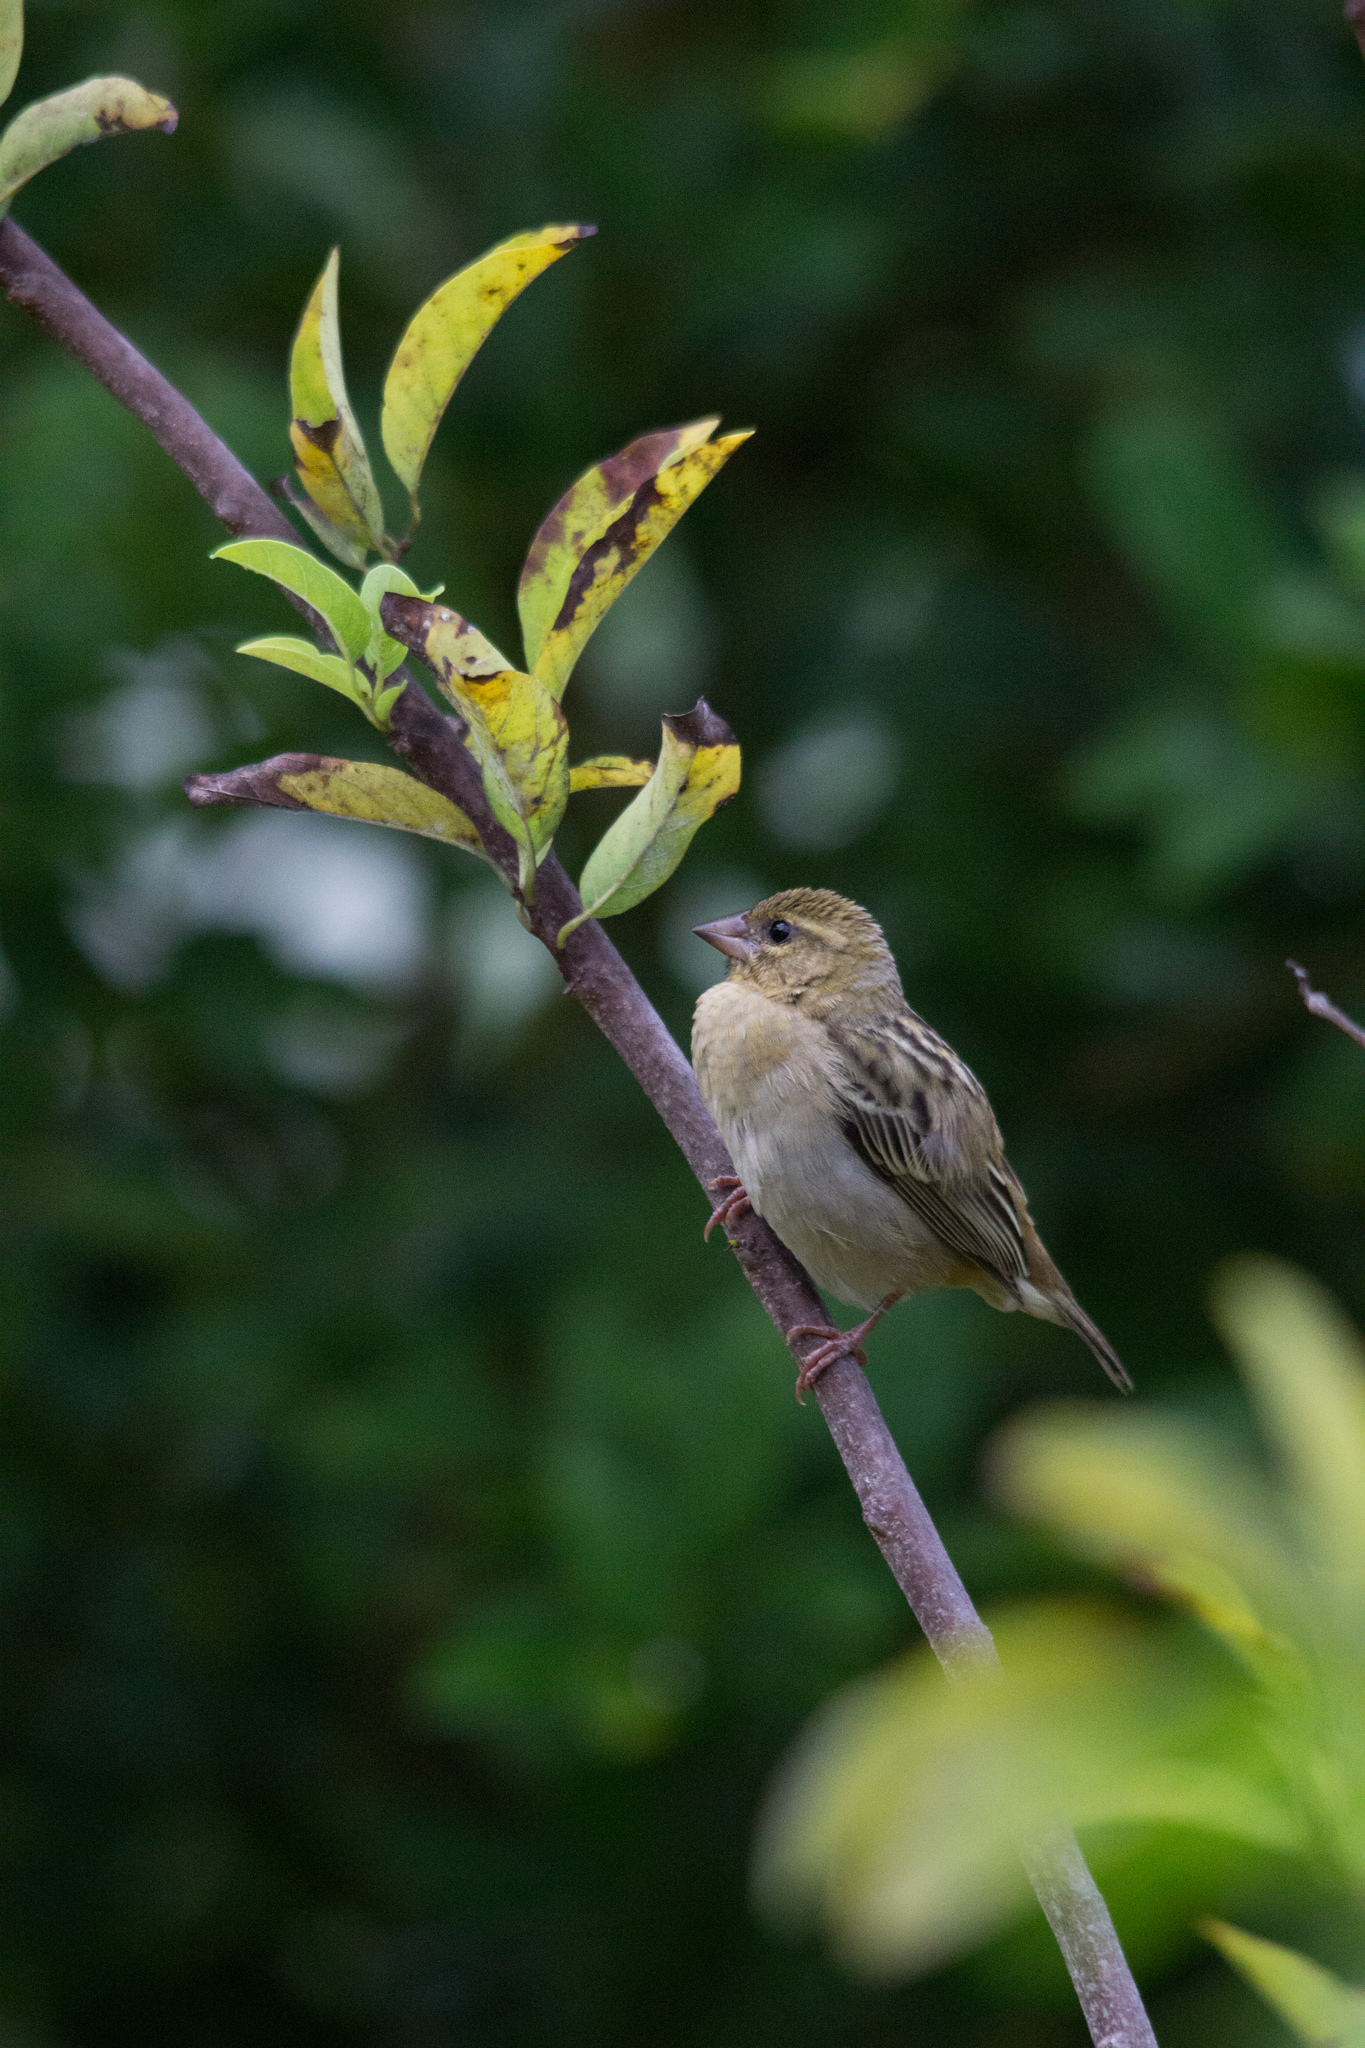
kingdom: Animalia
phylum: Chordata
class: Aves
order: Passeriformes
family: Ploceidae
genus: Foudia
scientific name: Foudia madagascariensis
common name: Red fody
